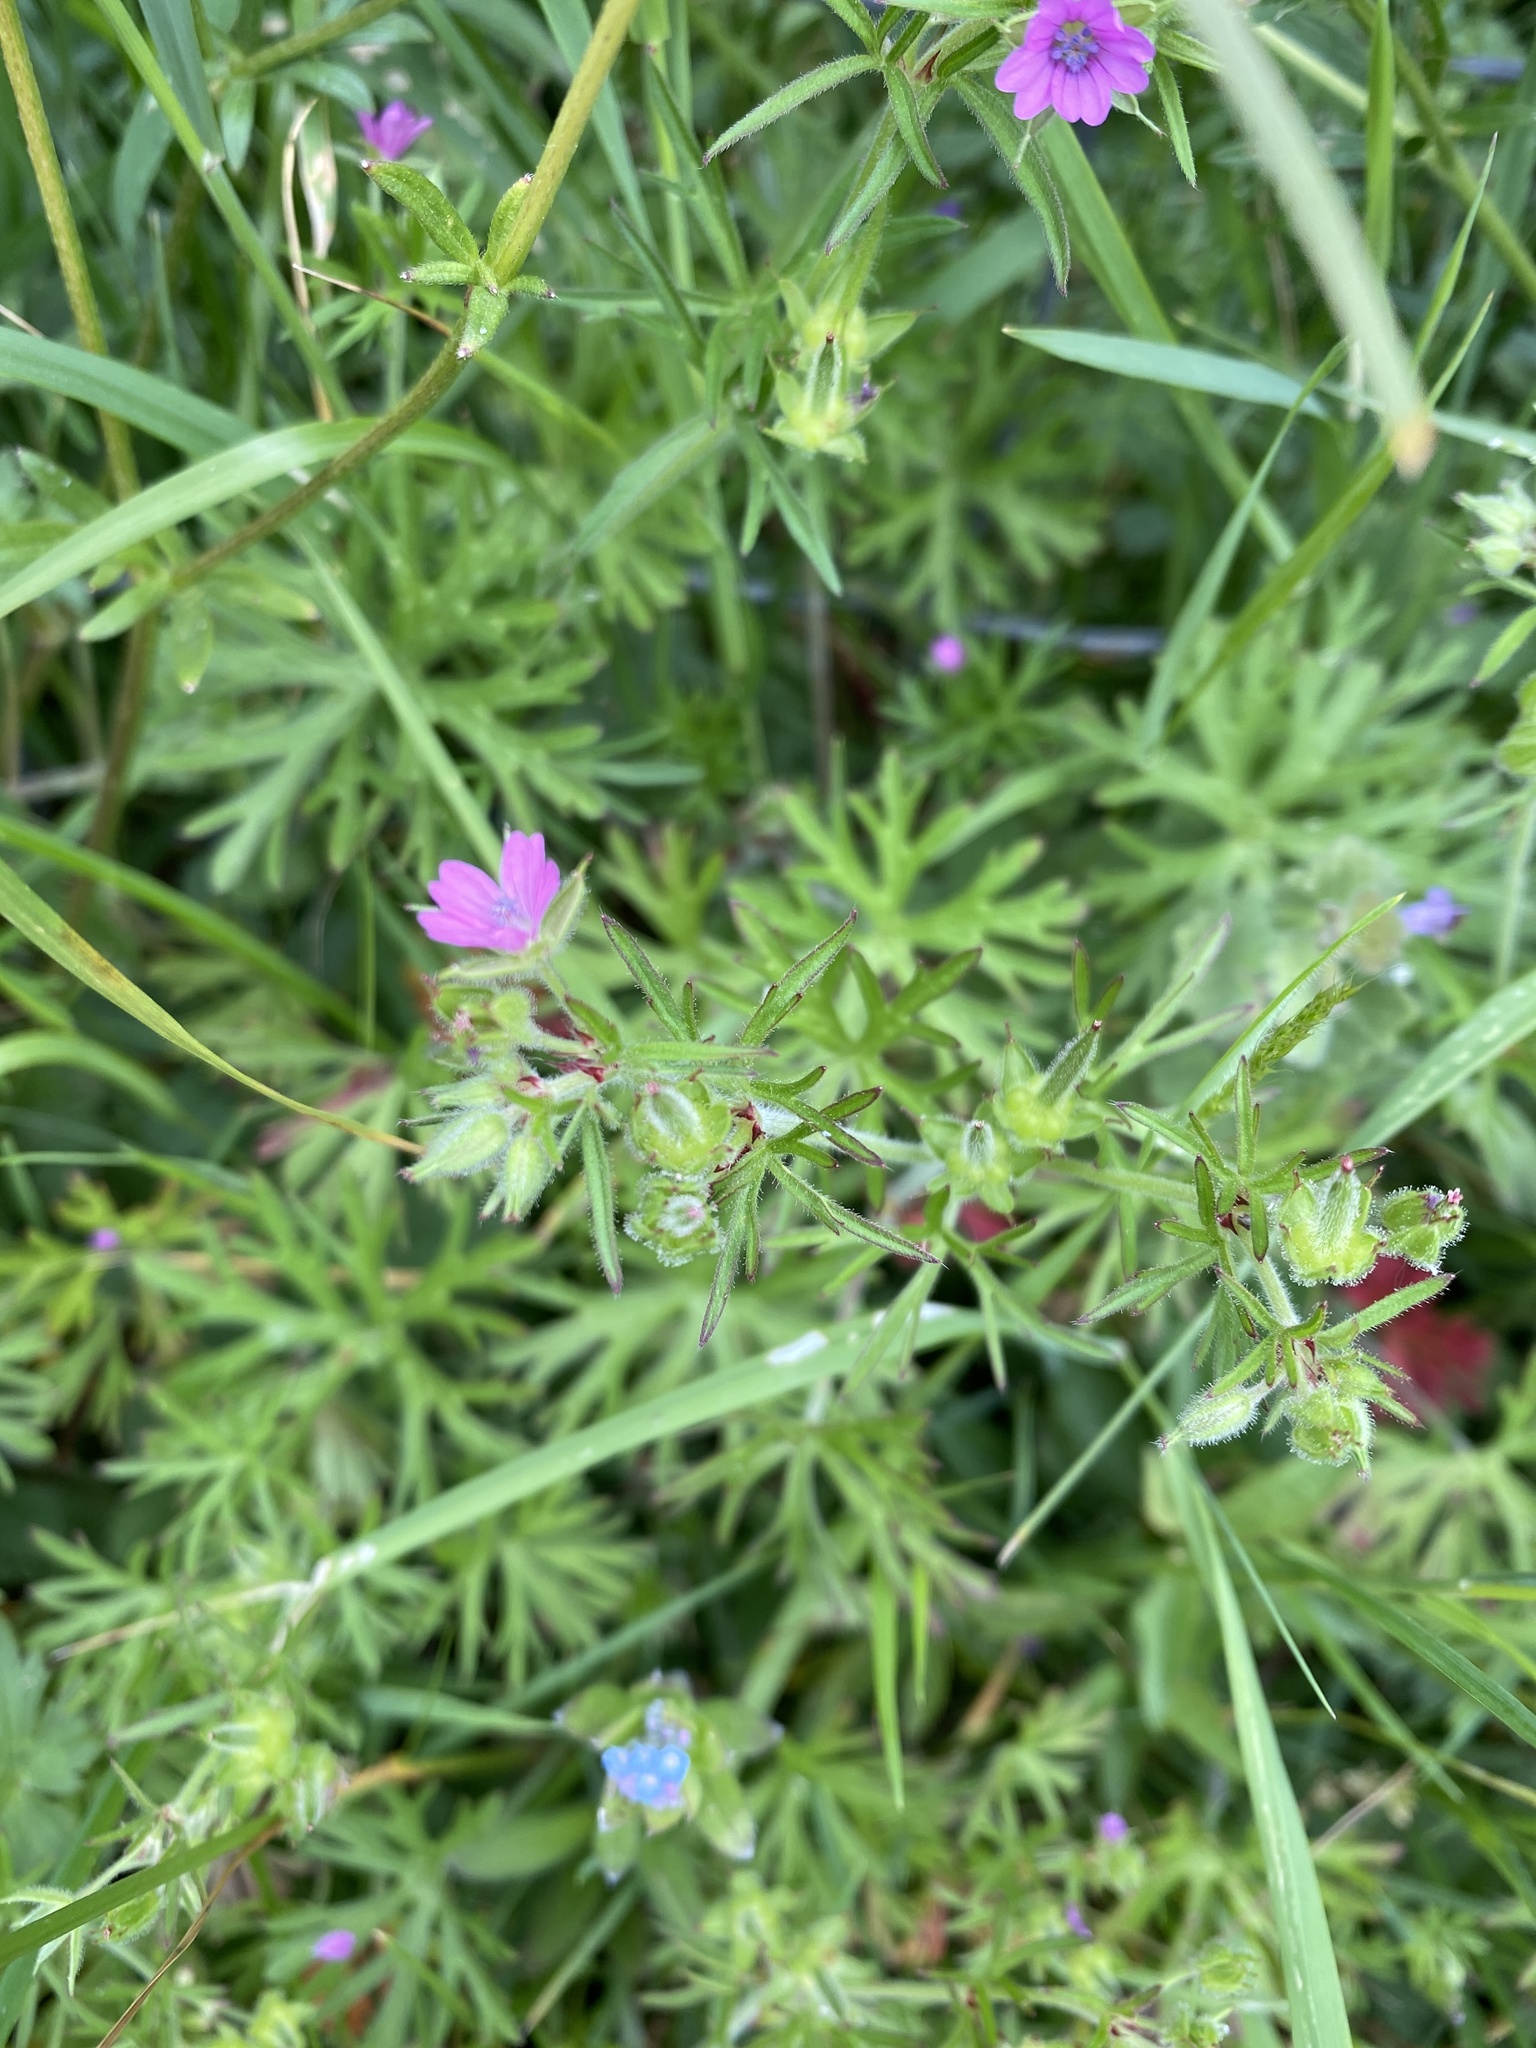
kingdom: Plantae
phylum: Tracheophyta
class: Magnoliopsida
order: Geraniales
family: Geraniaceae
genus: Geranium
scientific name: Geranium dissectum
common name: Cut-leaved crane's-bill
